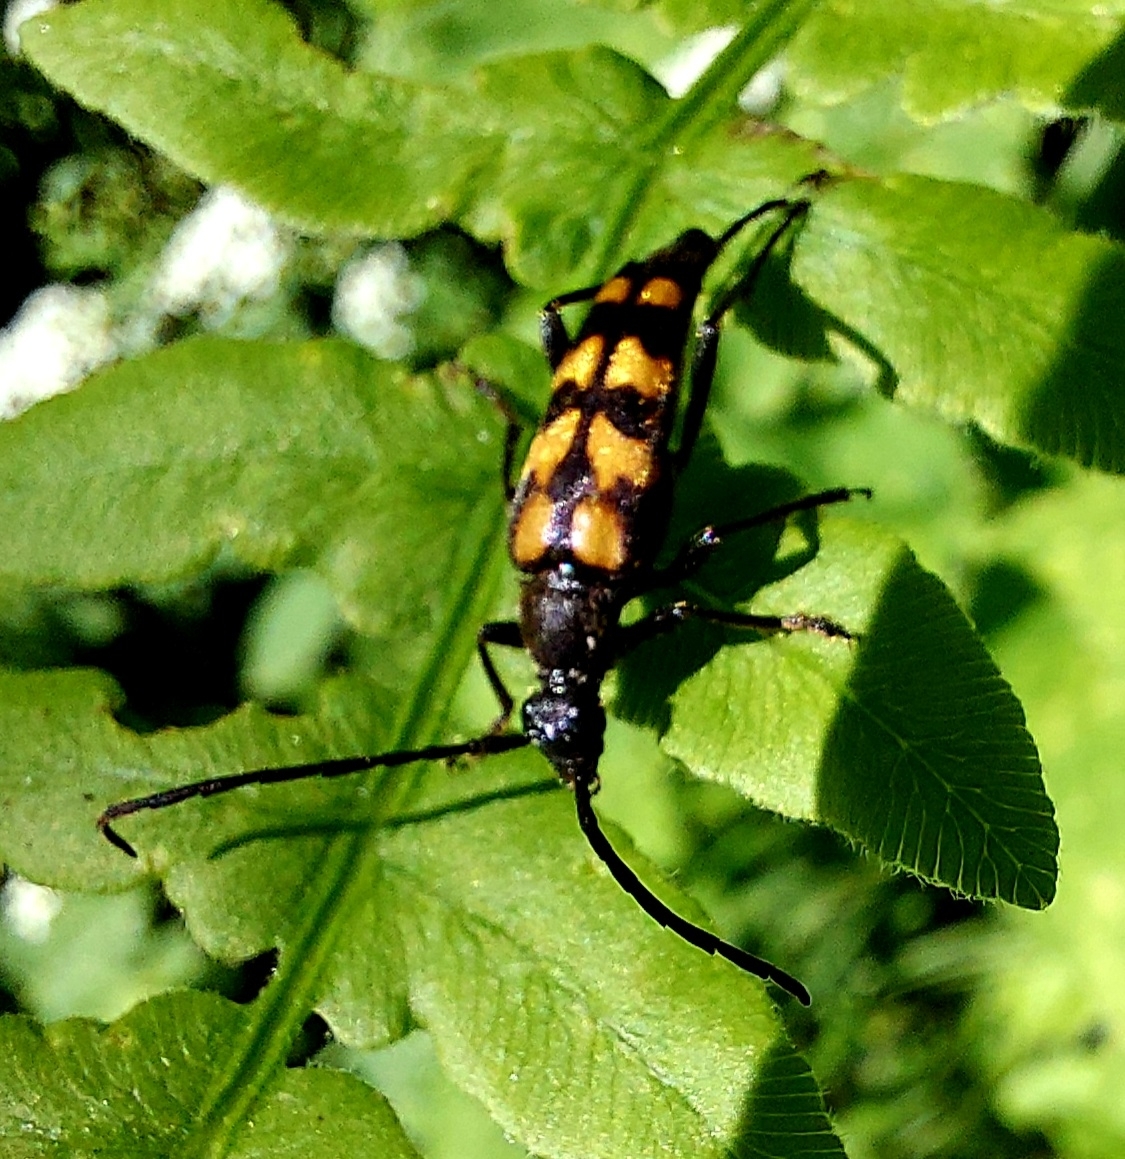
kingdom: Animalia
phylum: Arthropoda
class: Insecta
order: Coleoptera
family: Cerambycidae
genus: Leptura
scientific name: Leptura quadrifasciata
